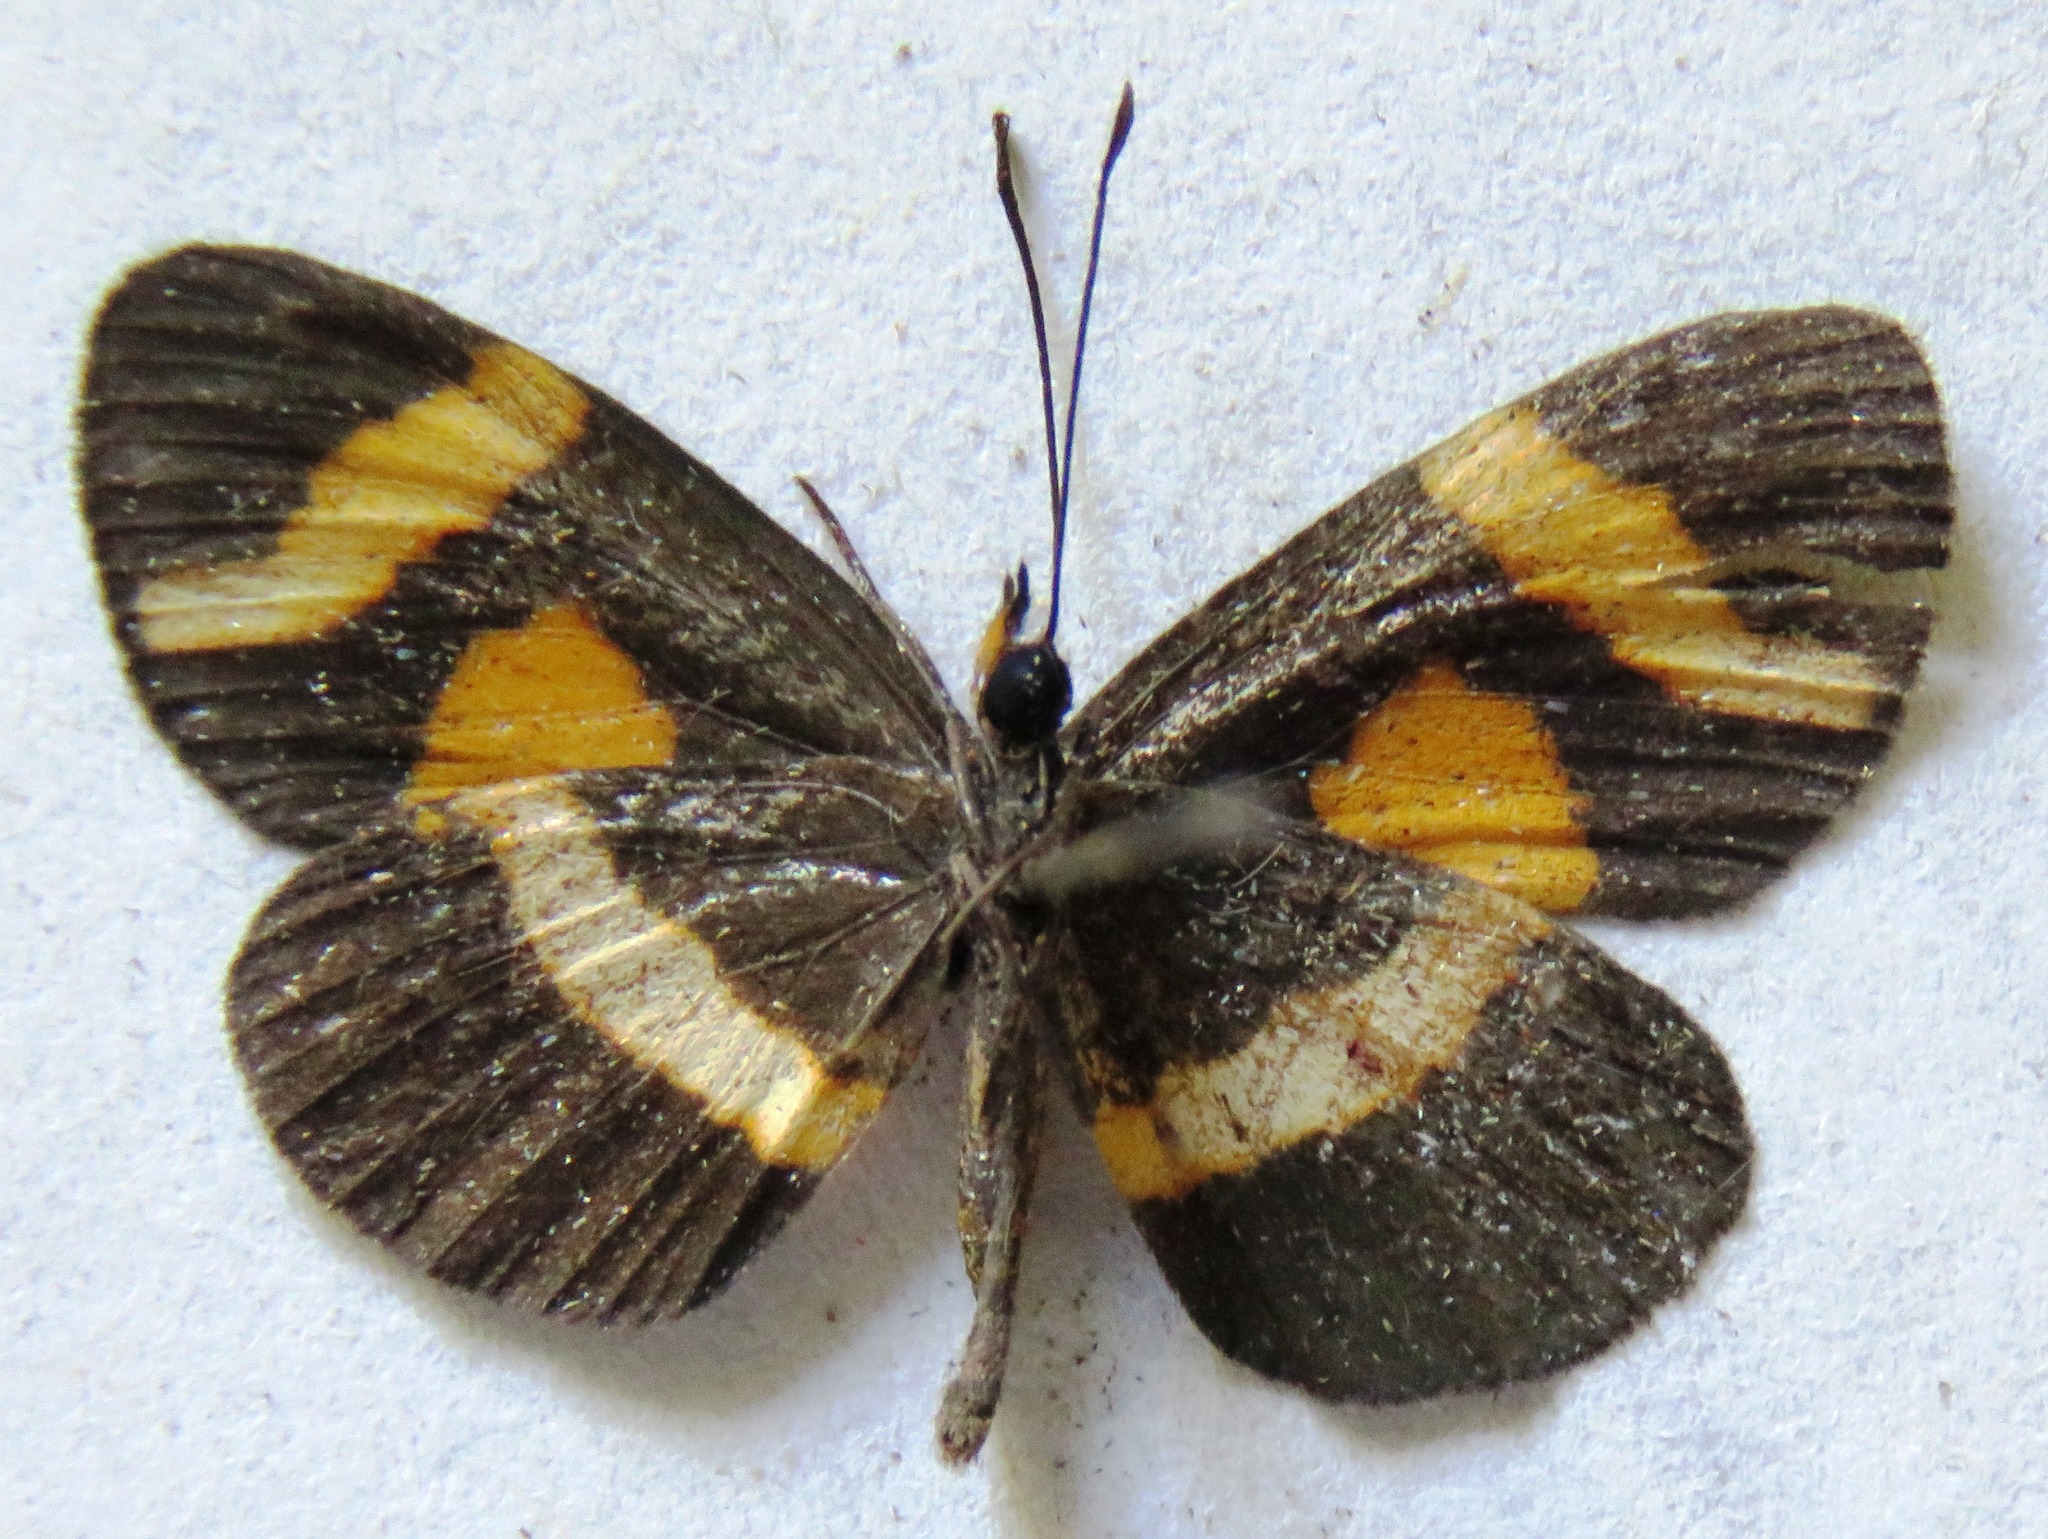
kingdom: Animalia
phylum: Arthropoda
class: Insecta
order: Lepidoptera
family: Nymphalidae
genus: Microtia
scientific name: Microtia elva
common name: Elf
